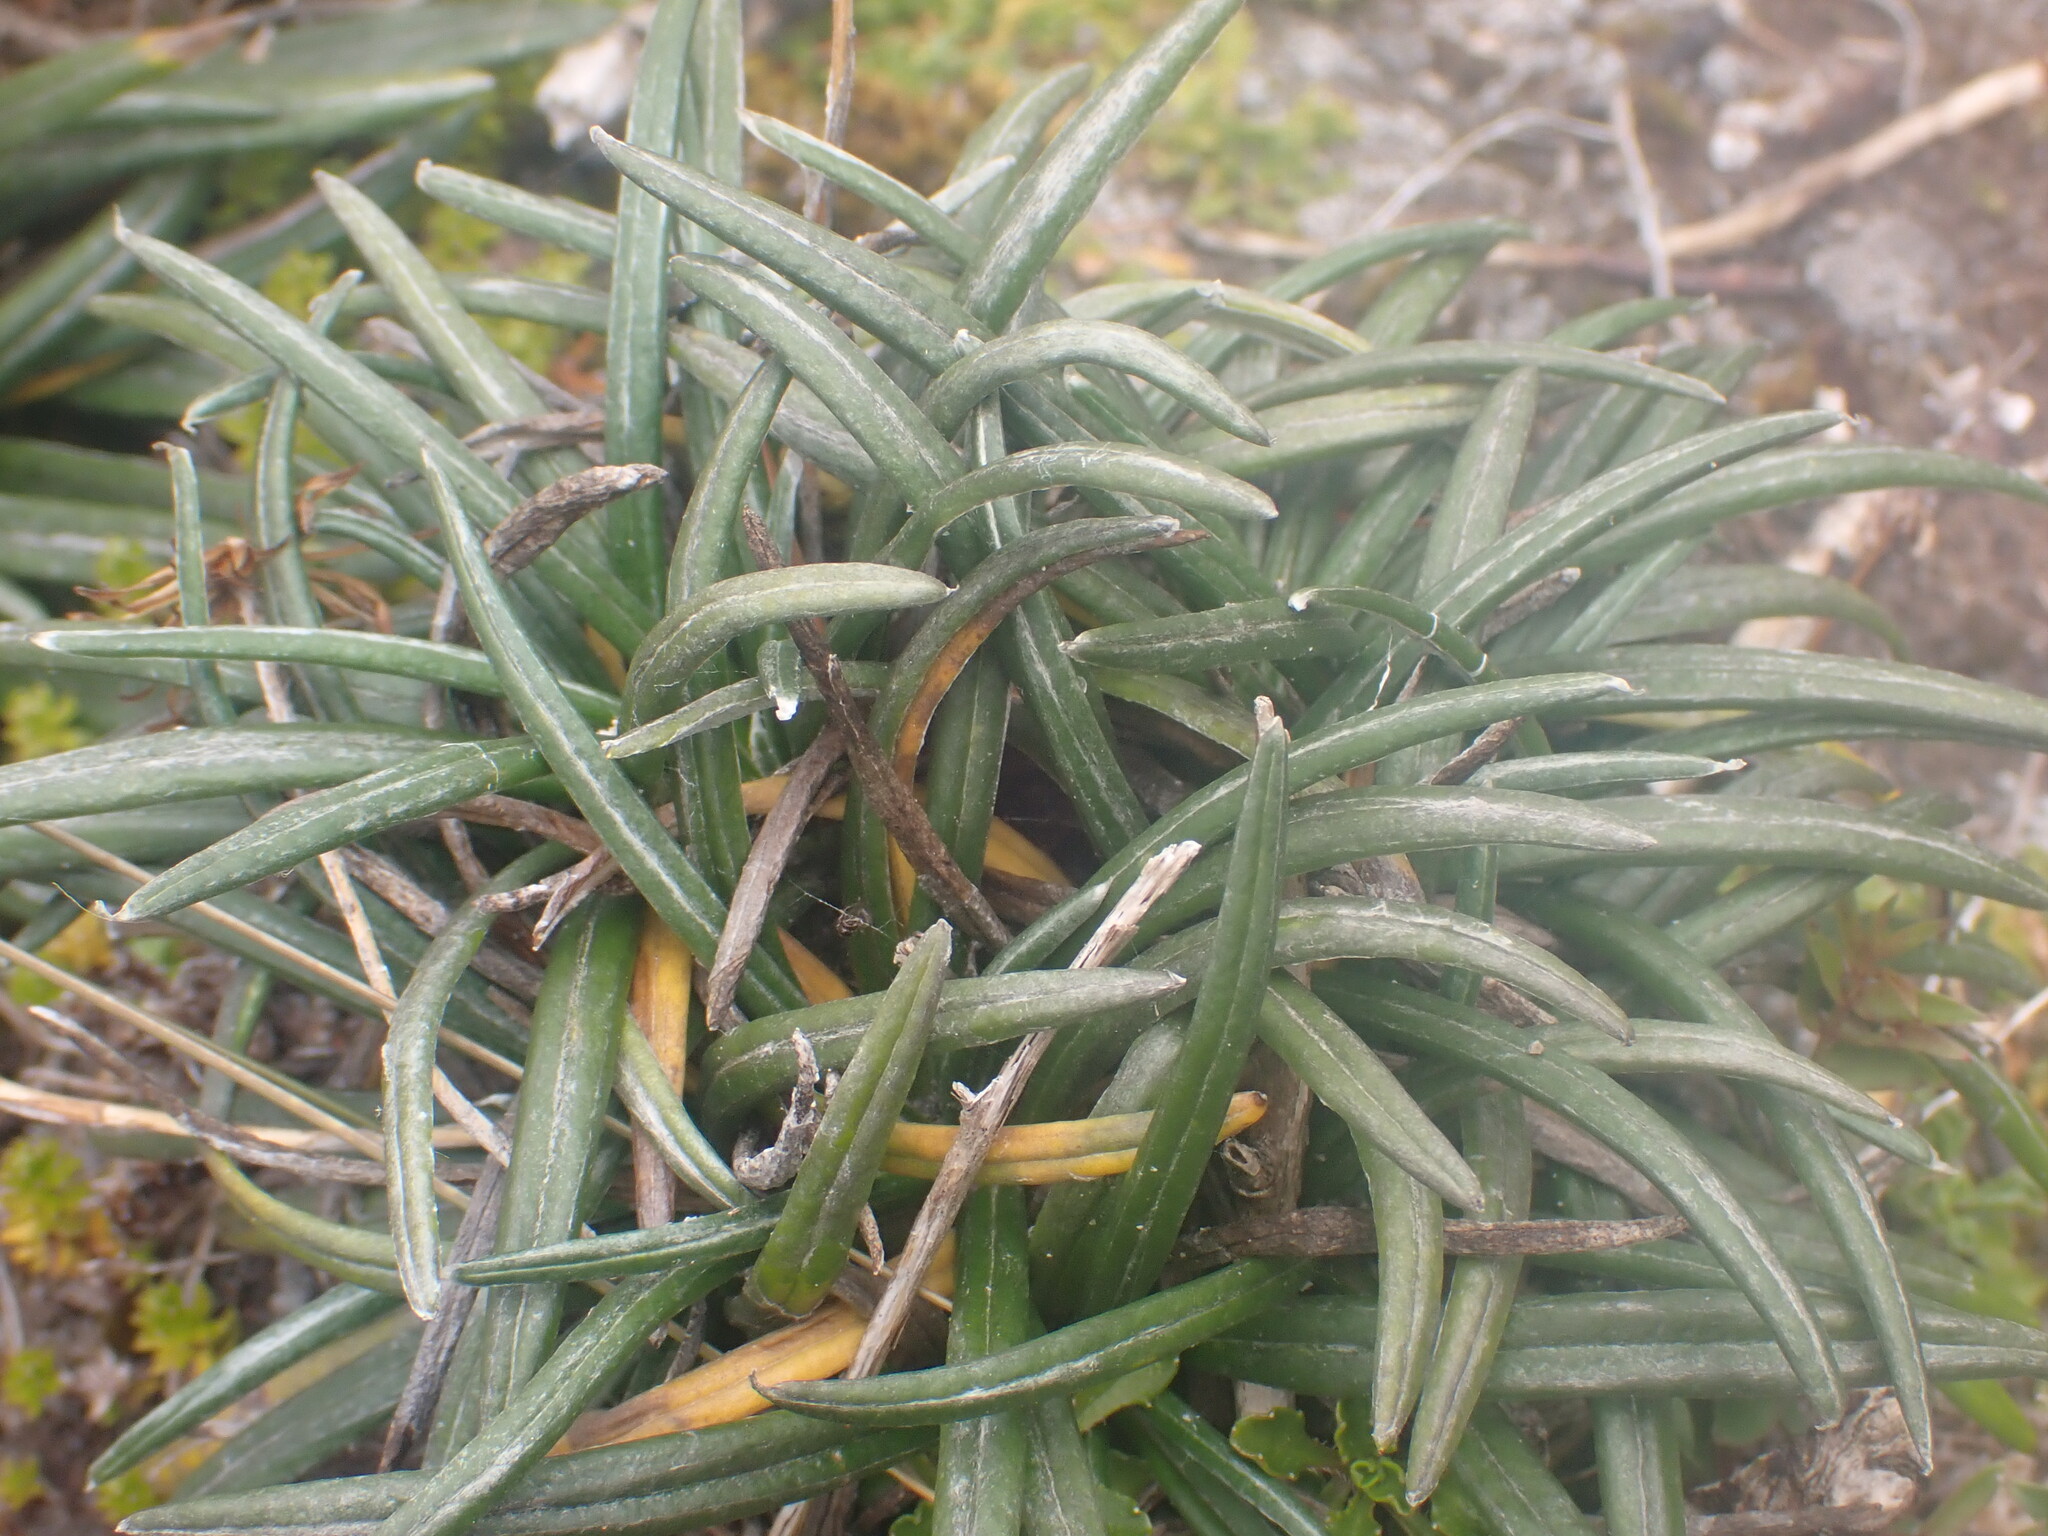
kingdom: Plantae
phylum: Tracheophyta
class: Magnoliopsida
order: Asterales
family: Asteraceae
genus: Celmisia
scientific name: Celmisia major
